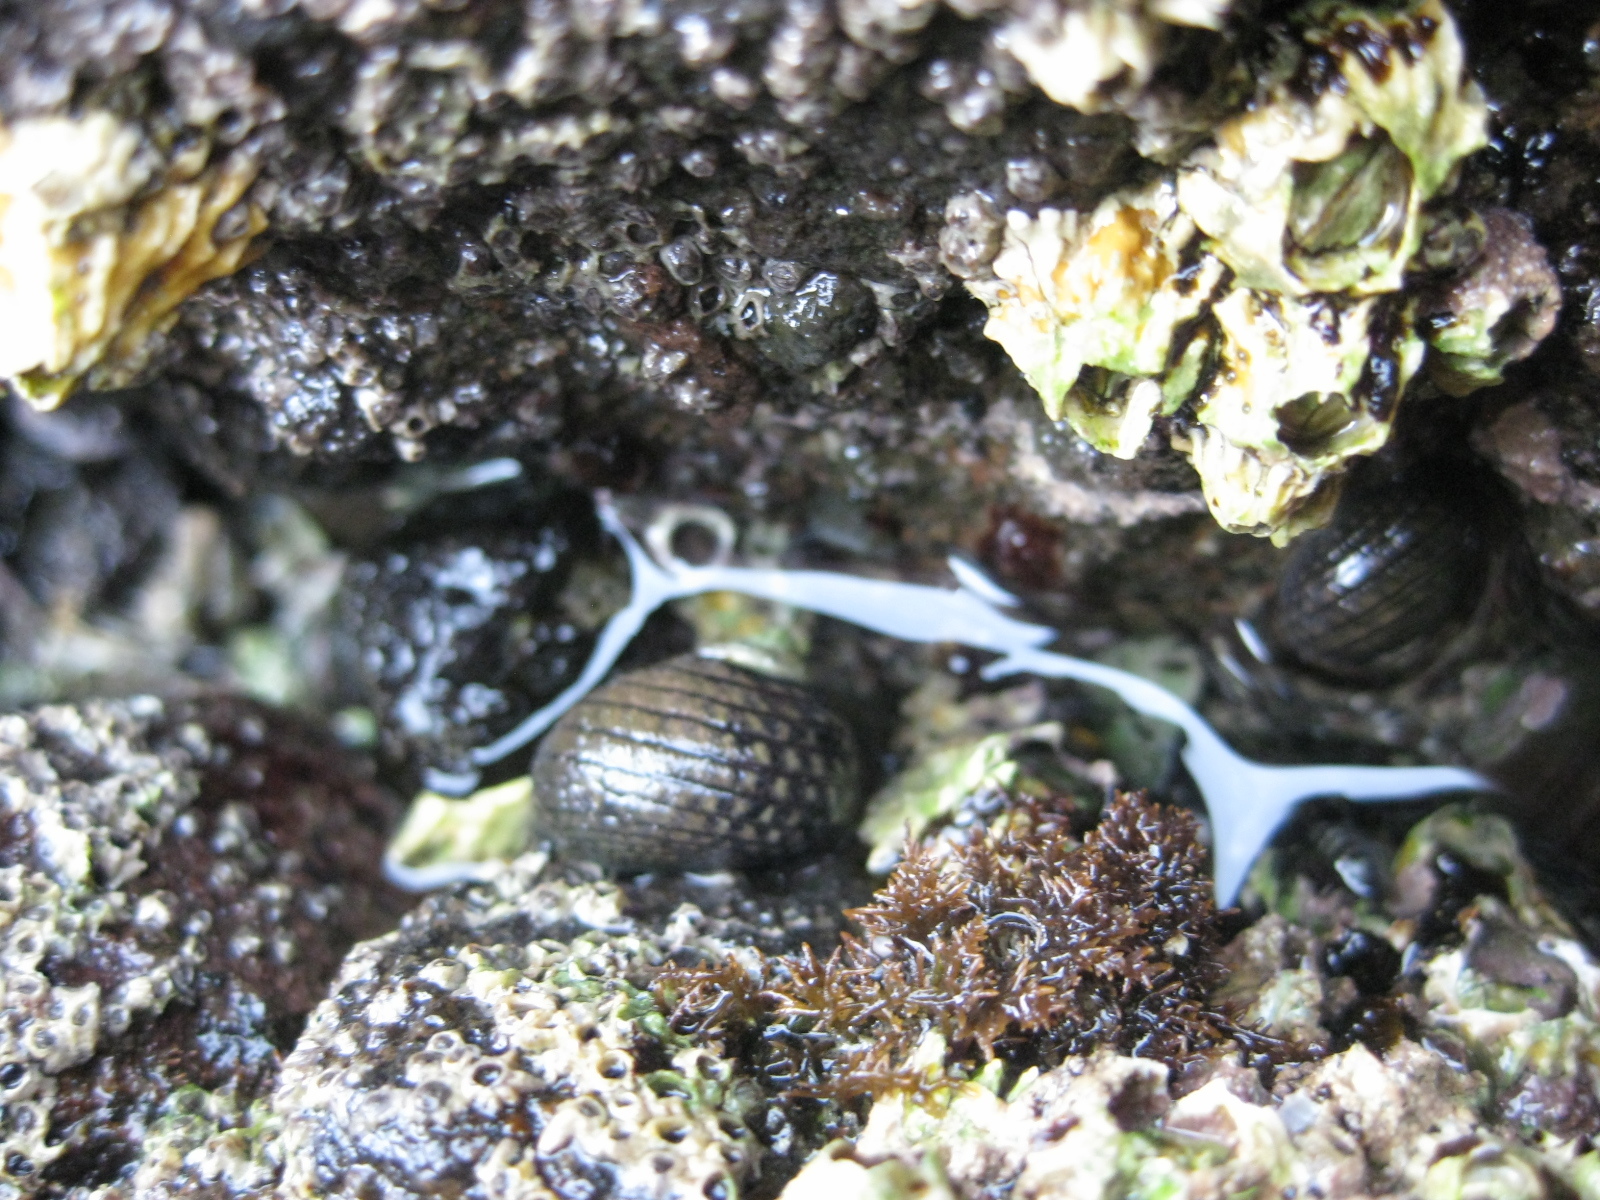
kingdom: Animalia
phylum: Mollusca
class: Gastropoda
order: Trochida
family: Trochidae
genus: Diloma
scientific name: Diloma aethiops
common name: Scorched monodont
